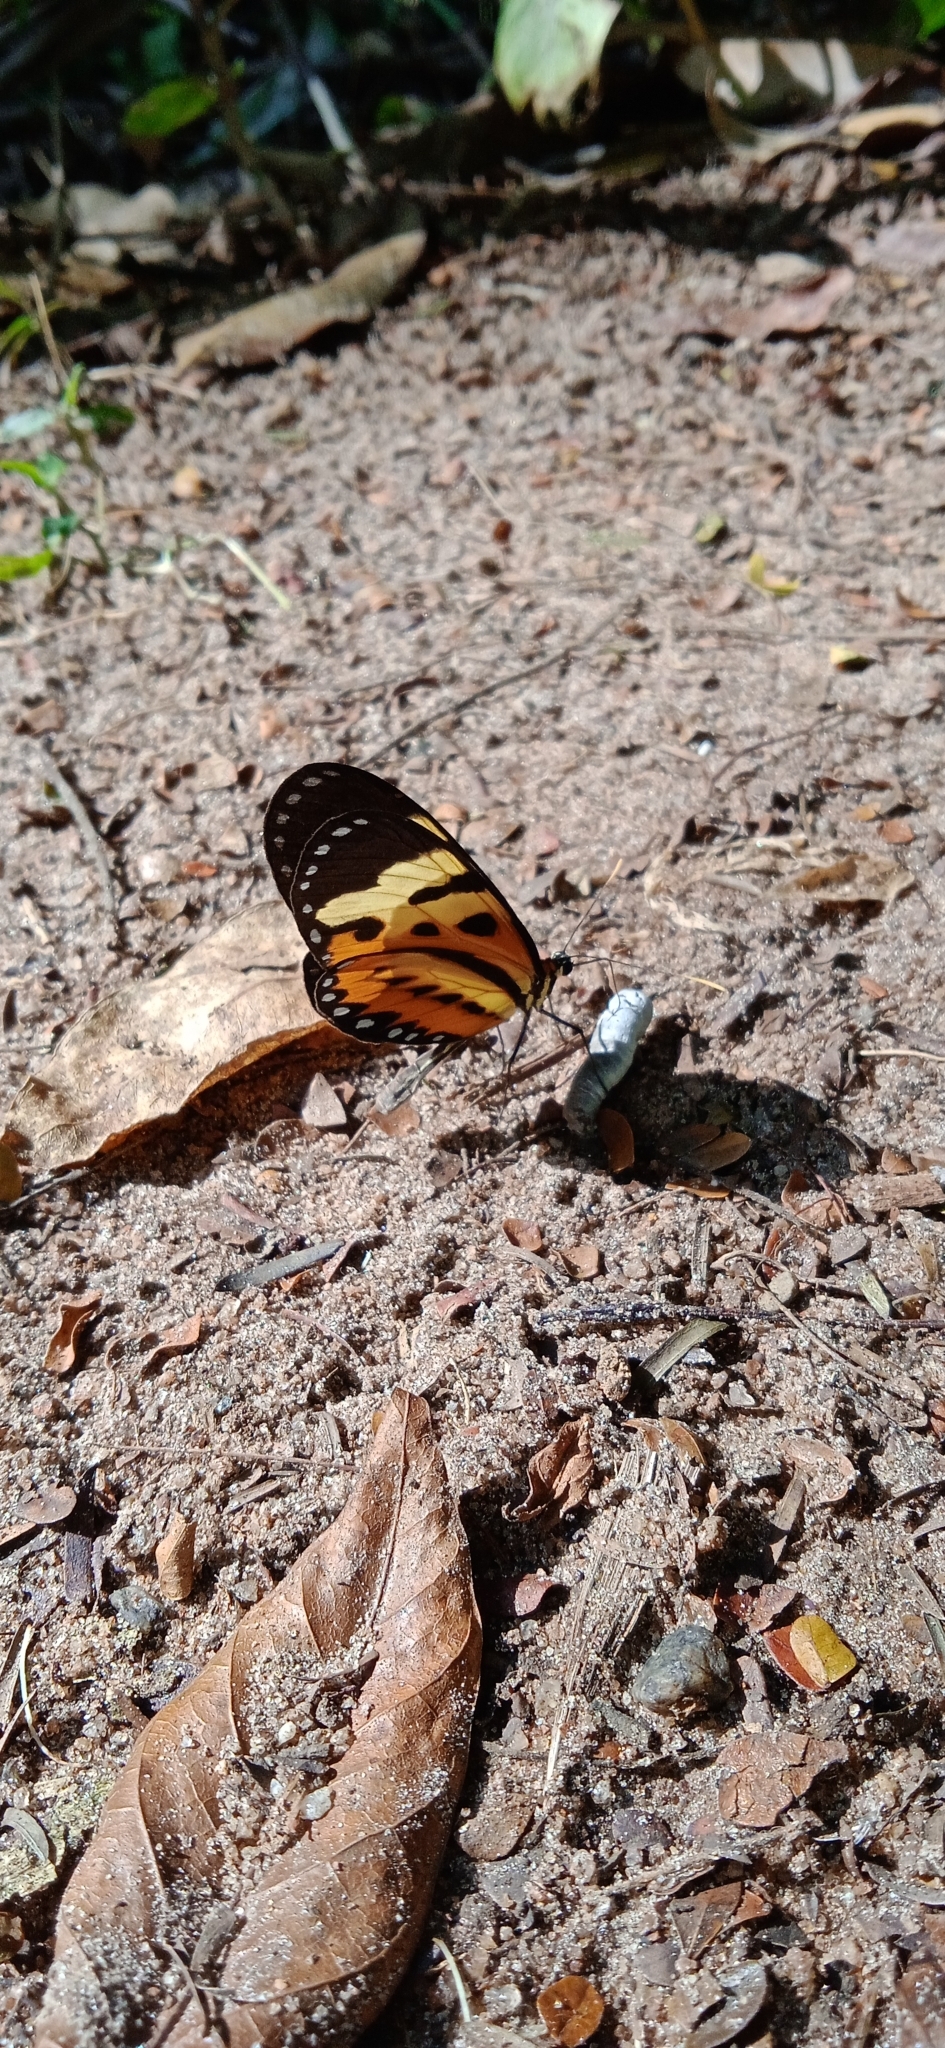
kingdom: Animalia
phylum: Arthropoda
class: Insecta
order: Lepidoptera
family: Nymphalidae
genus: Mechanitis
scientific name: Mechanitis polymnia
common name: Disturbed tigerwing
